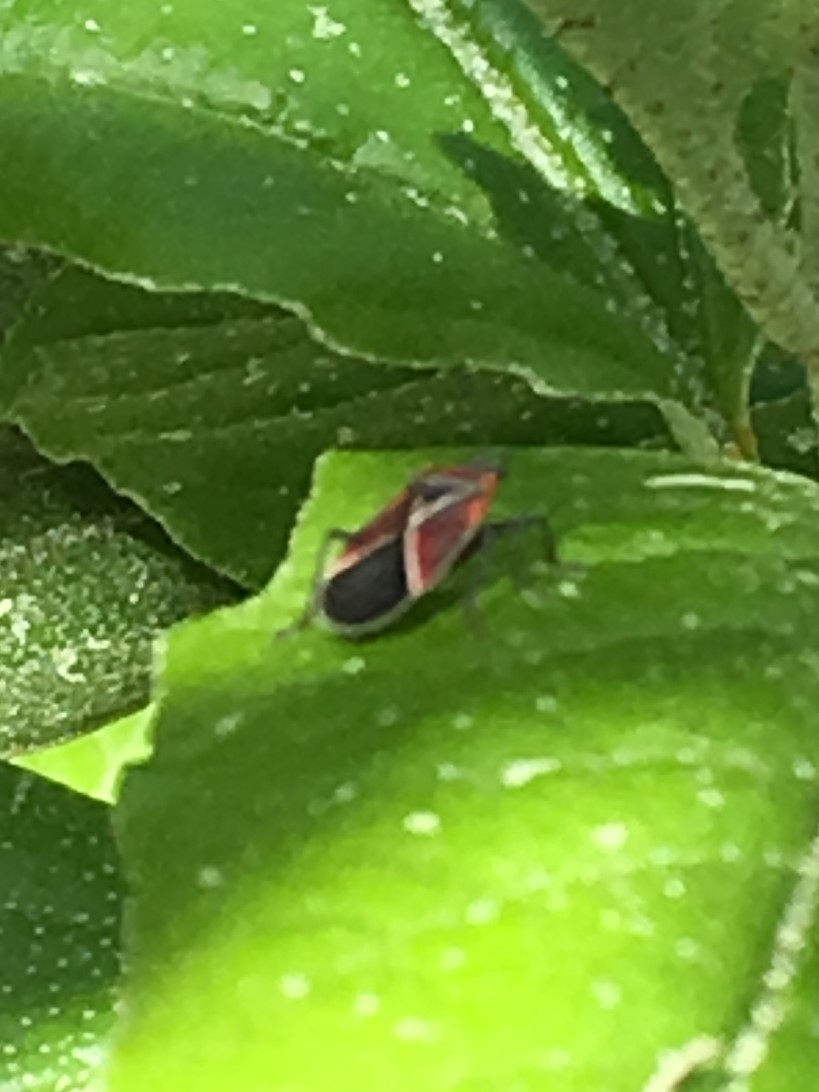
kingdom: Animalia
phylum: Arthropoda
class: Insecta
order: Hemiptera
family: Lygaeidae
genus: Neacoryphus
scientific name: Neacoryphus bicrucis
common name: Lygaeid bug
